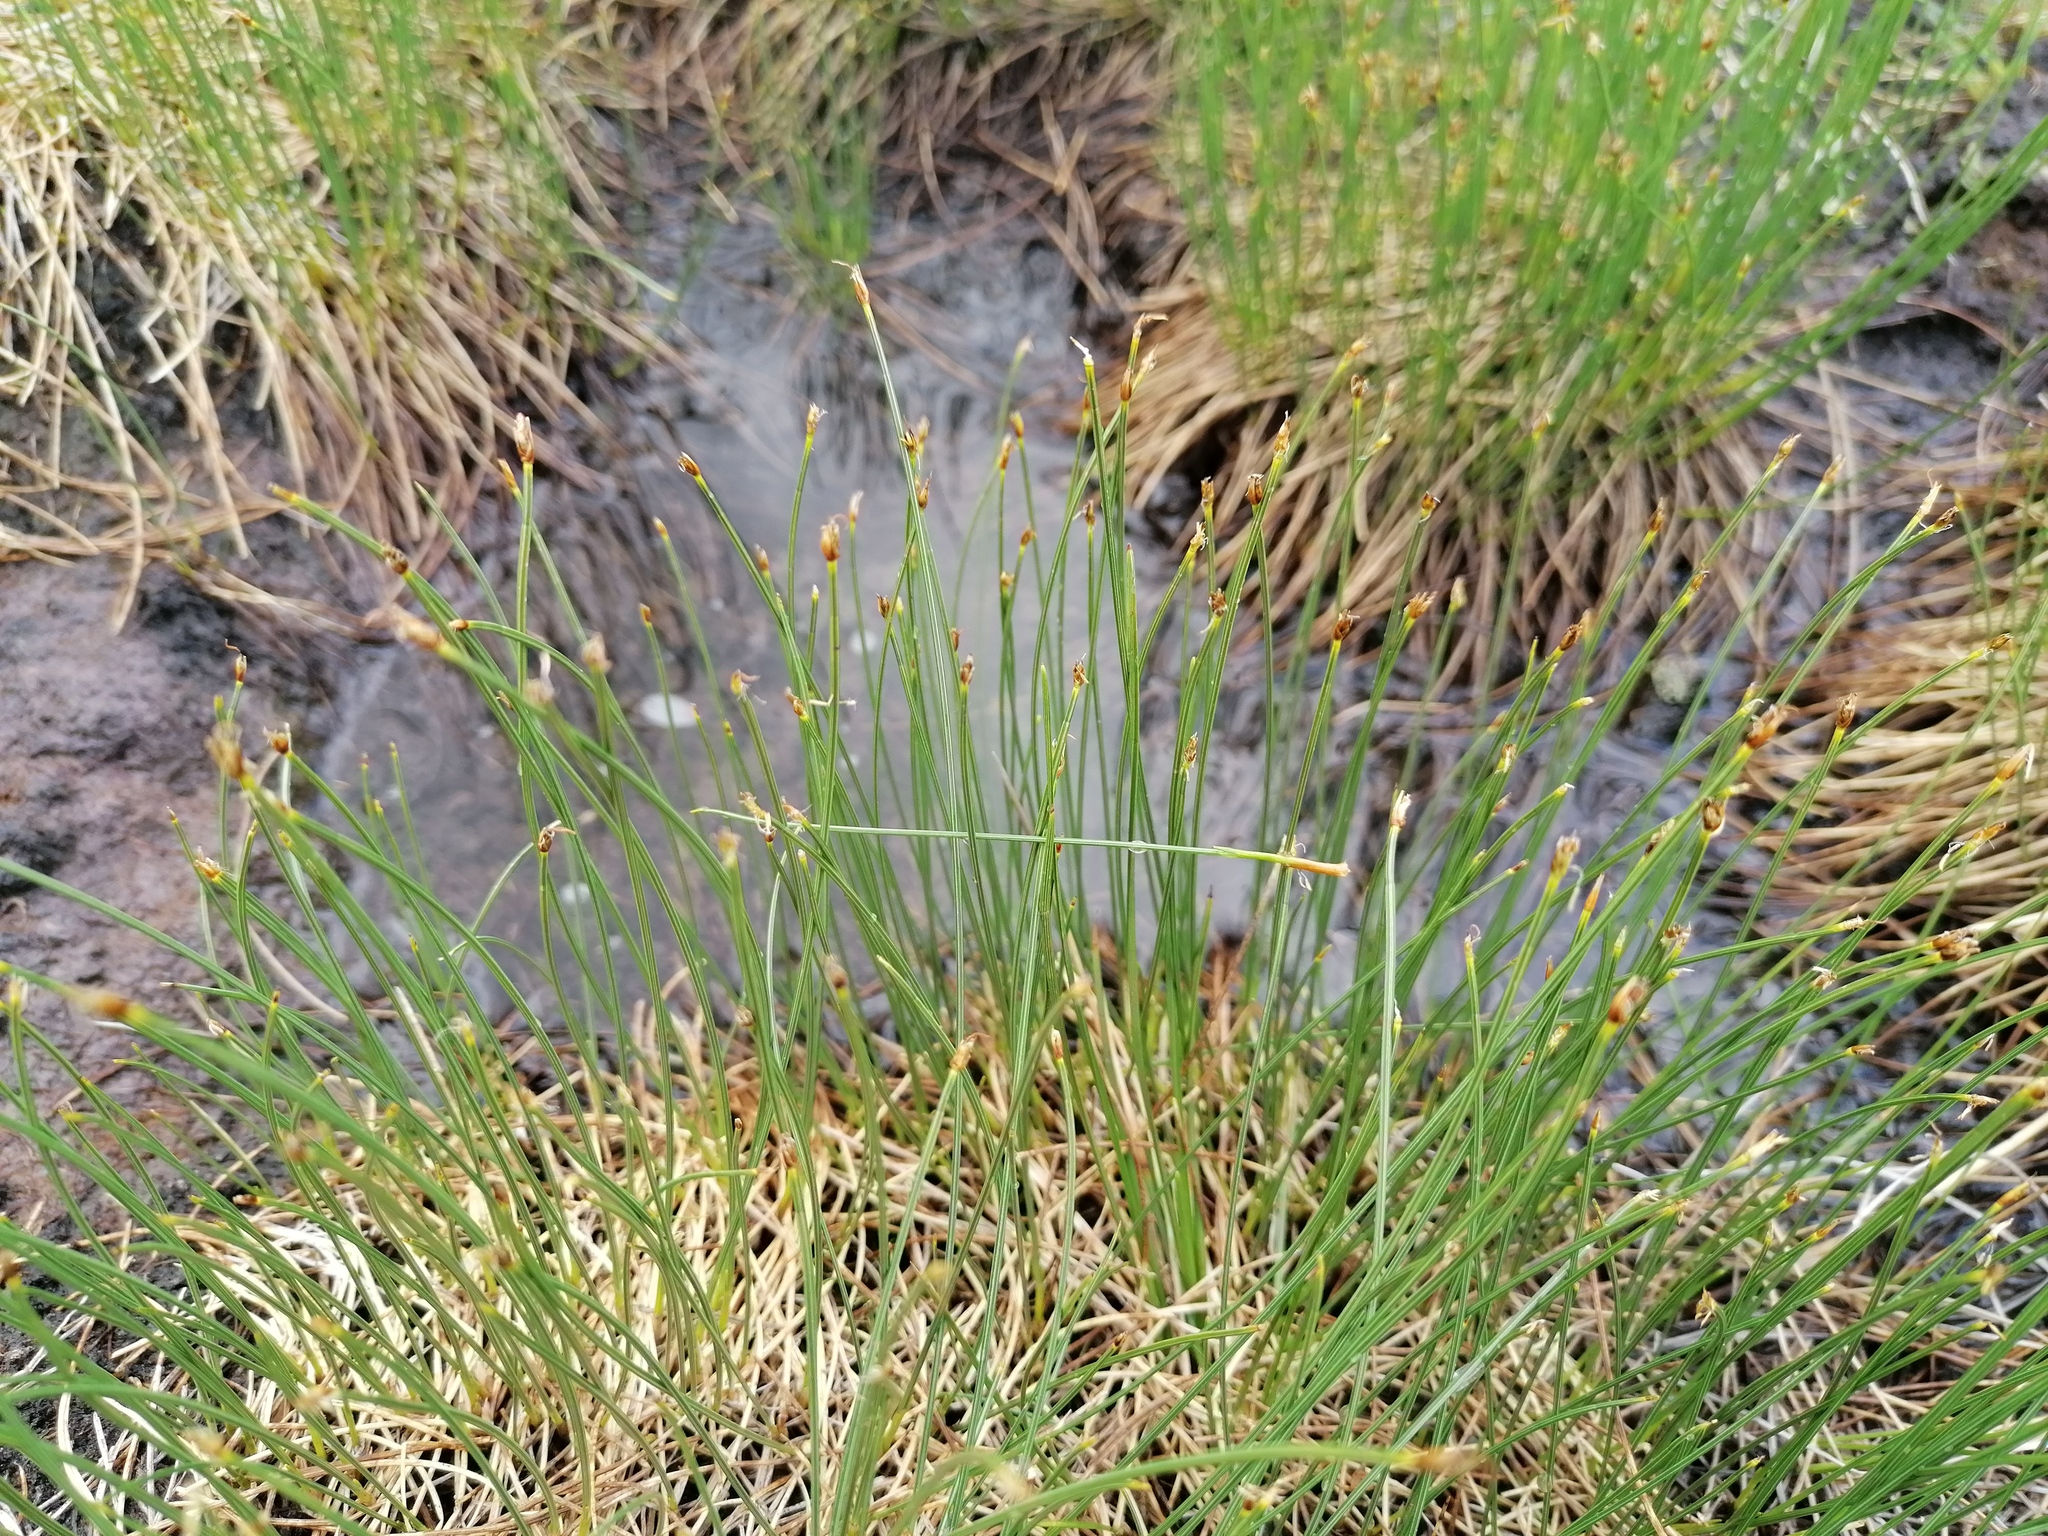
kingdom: Plantae
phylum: Tracheophyta
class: Liliopsida
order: Poales
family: Cyperaceae
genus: Trichophorum
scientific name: Trichophorum cespitosum
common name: Cespitose bulrush
